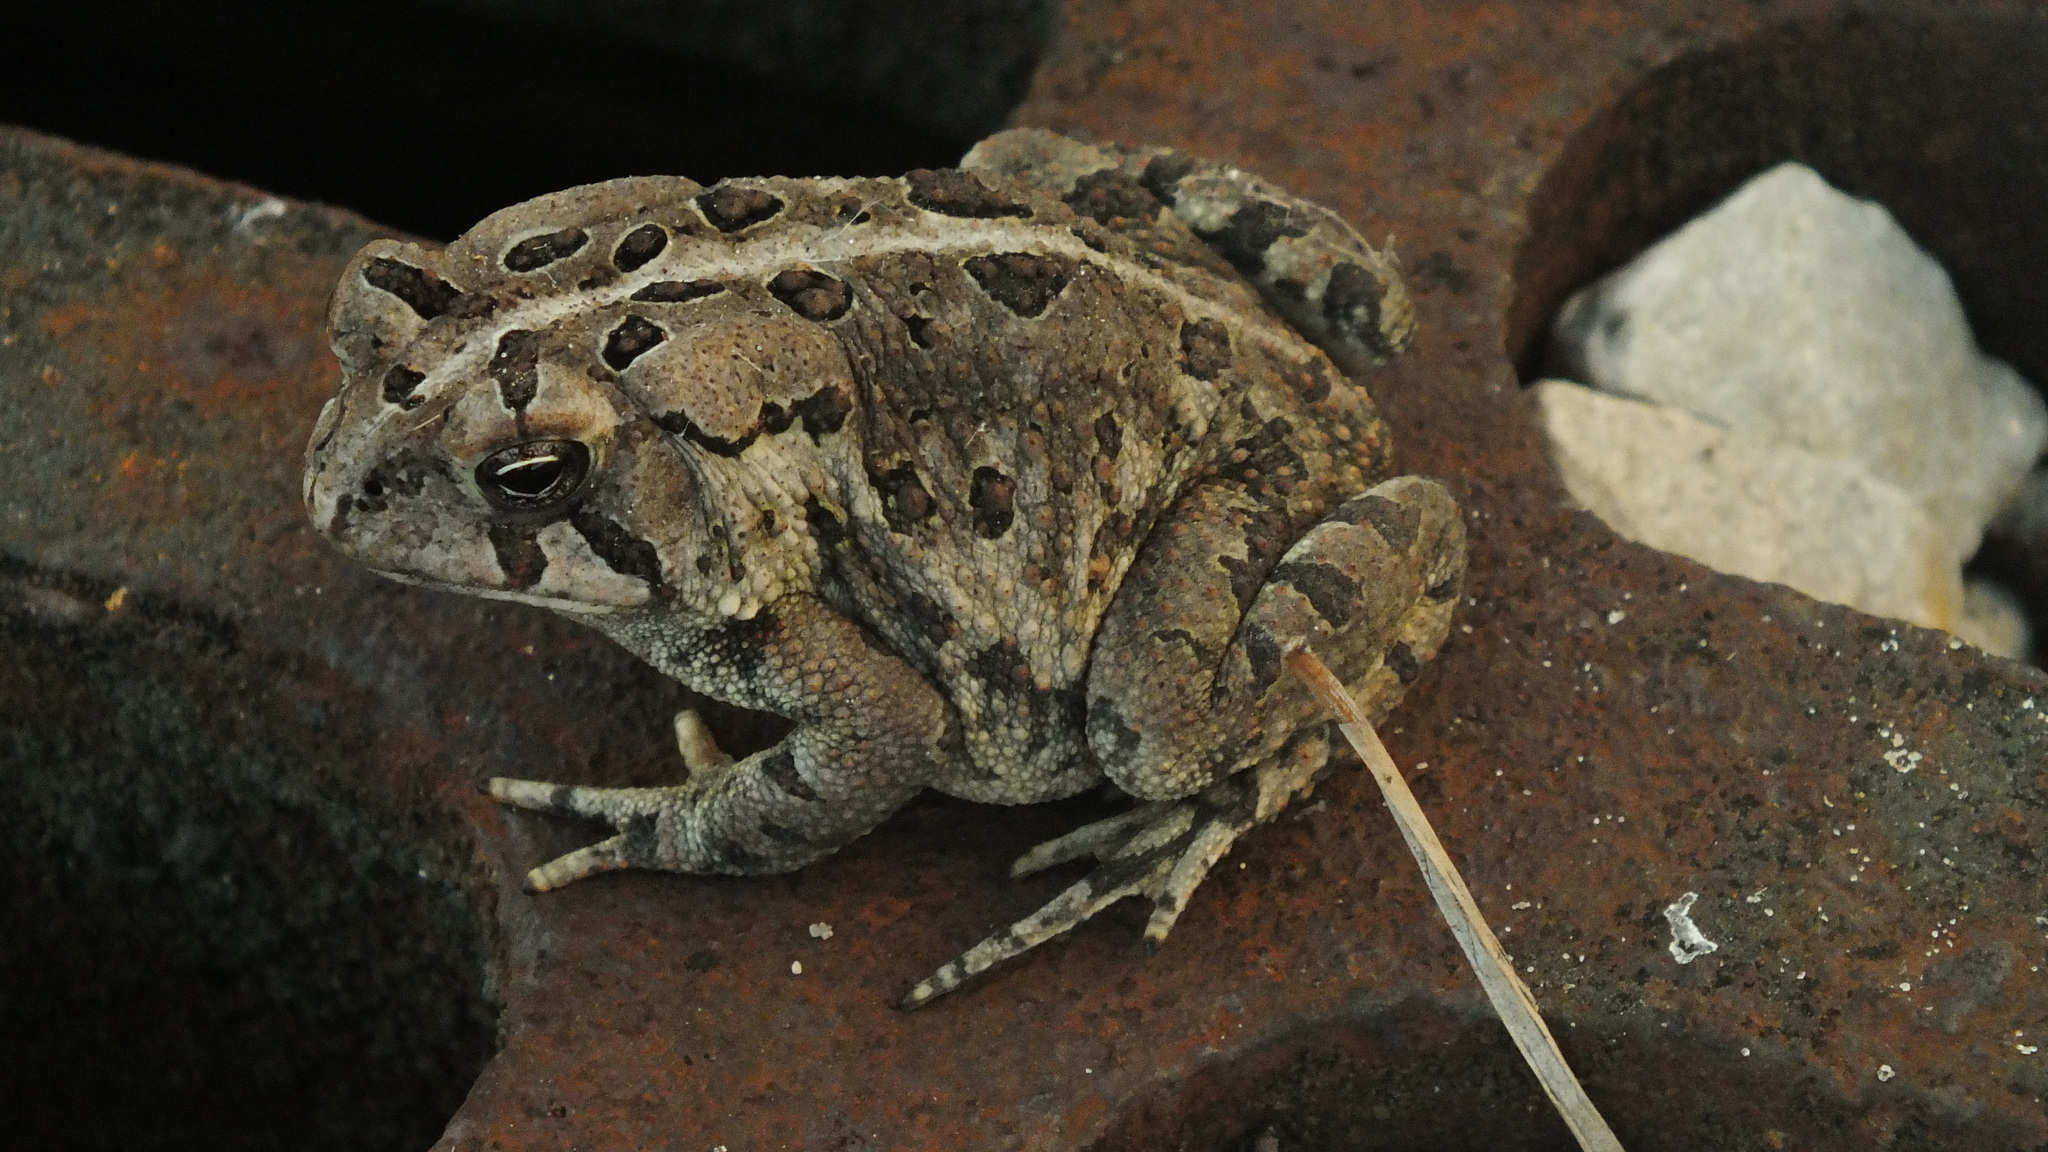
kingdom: Animalia
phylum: Chordata
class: Amphibia
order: Anura
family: Bufonidae
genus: Anaxyrus
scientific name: Anaxyrus fowleri
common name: Fowler's toad
